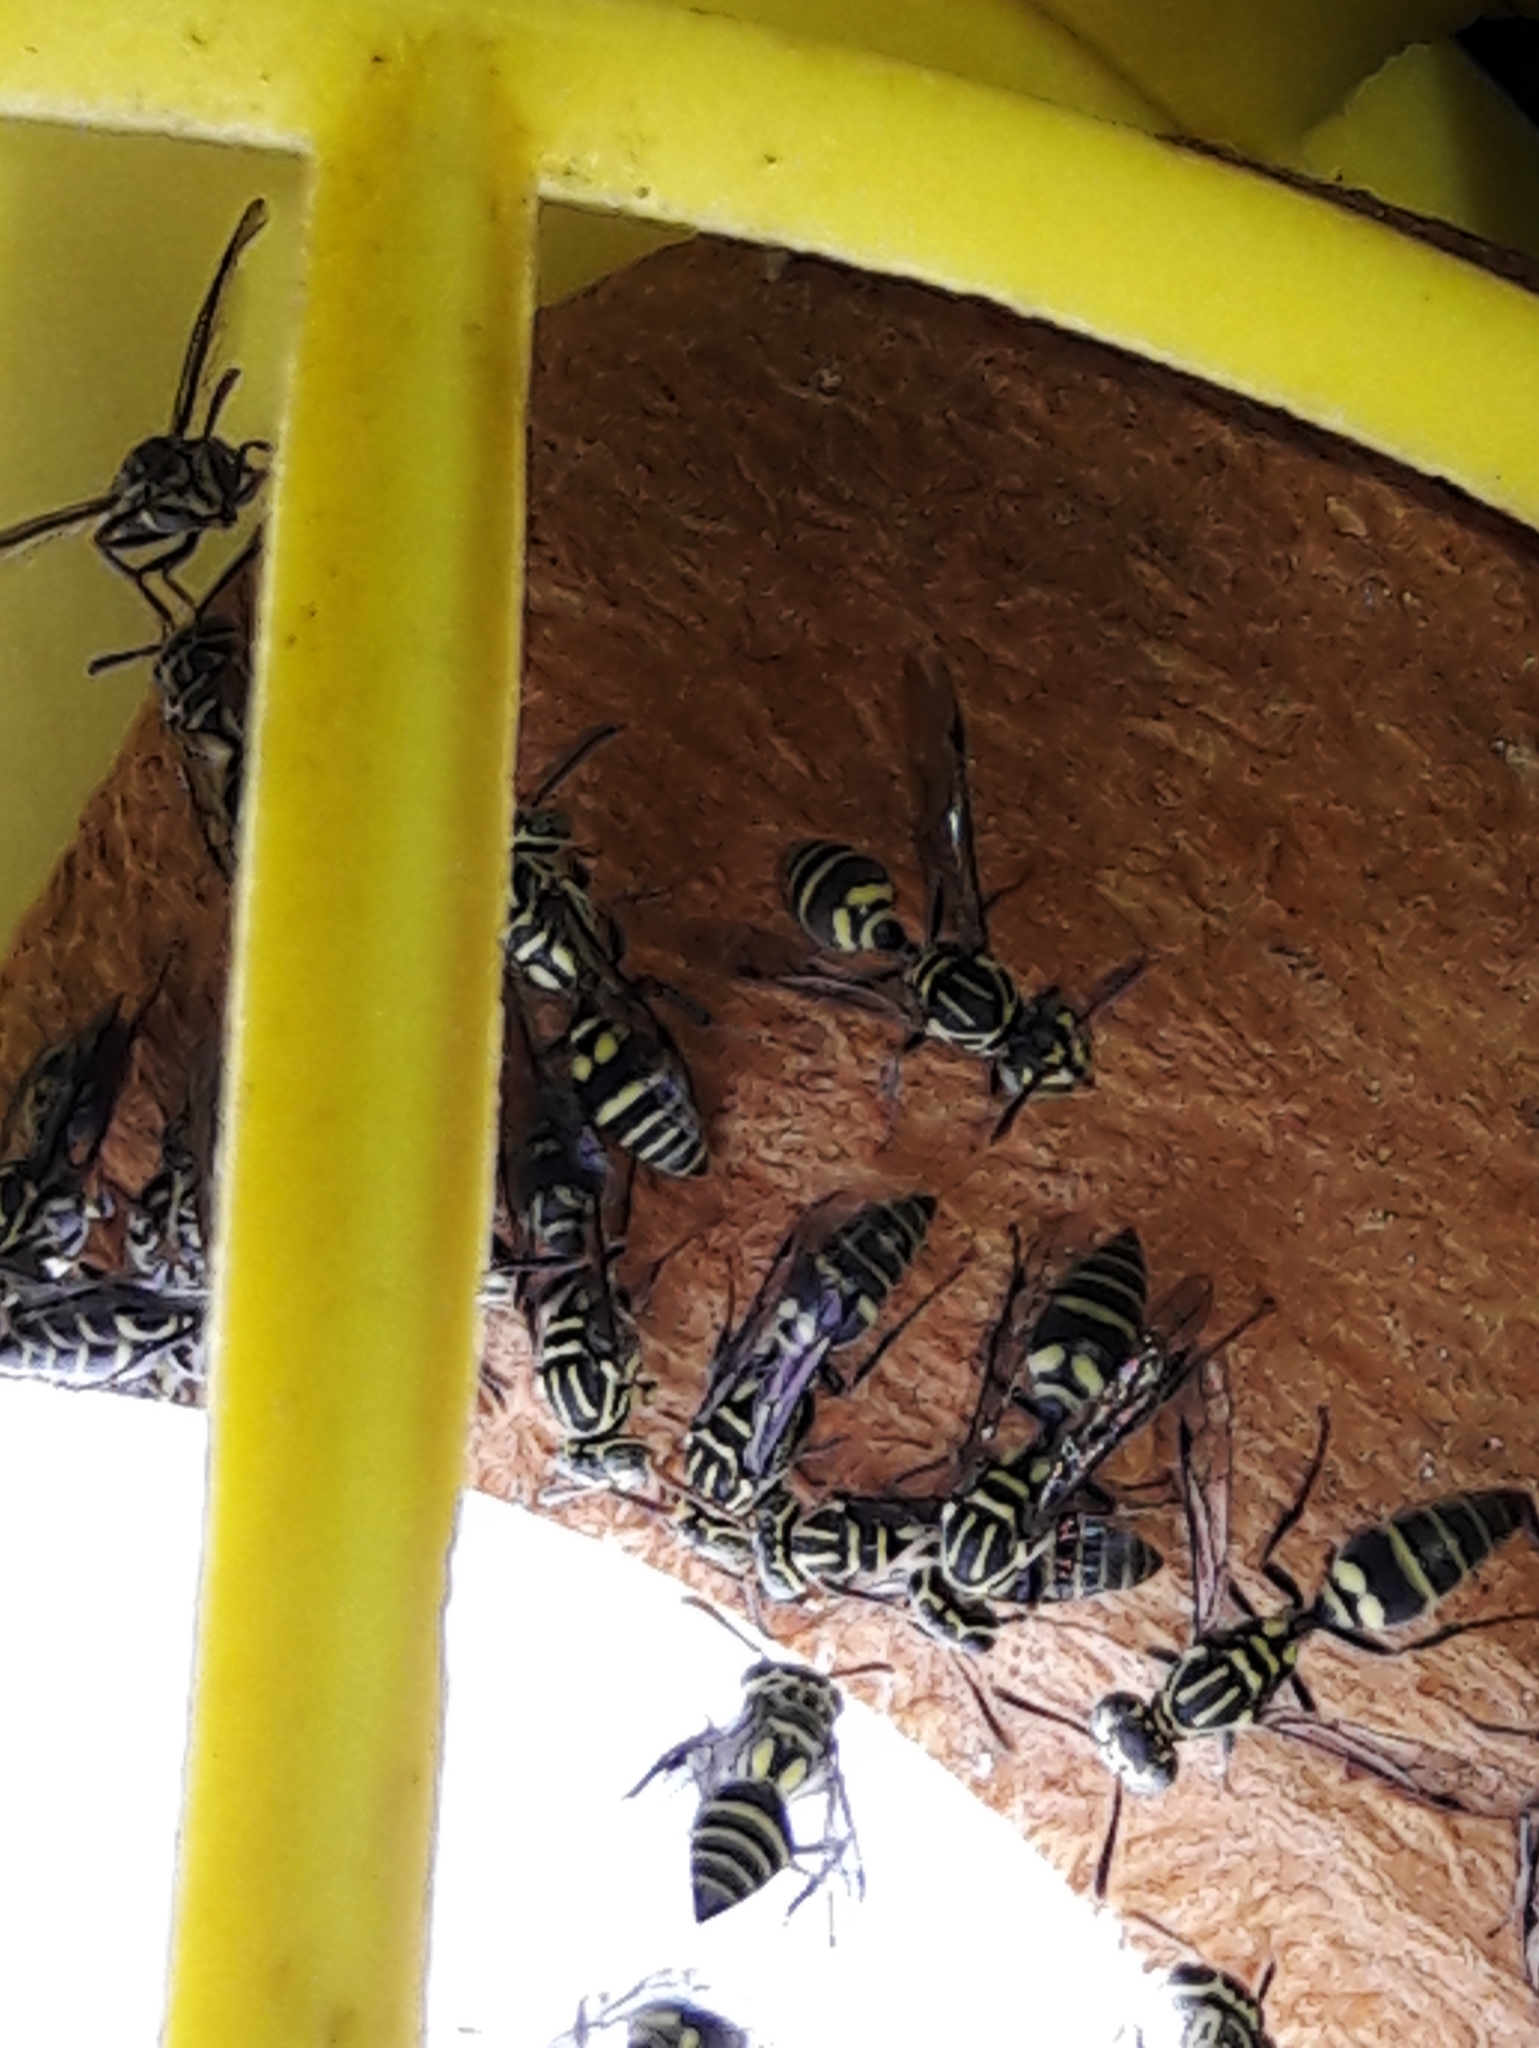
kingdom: Animalia
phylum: Arthropoda
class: Insecta
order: Hymenoptera
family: Vespidae
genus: Protopolybia
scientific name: Protopolybia exigua
